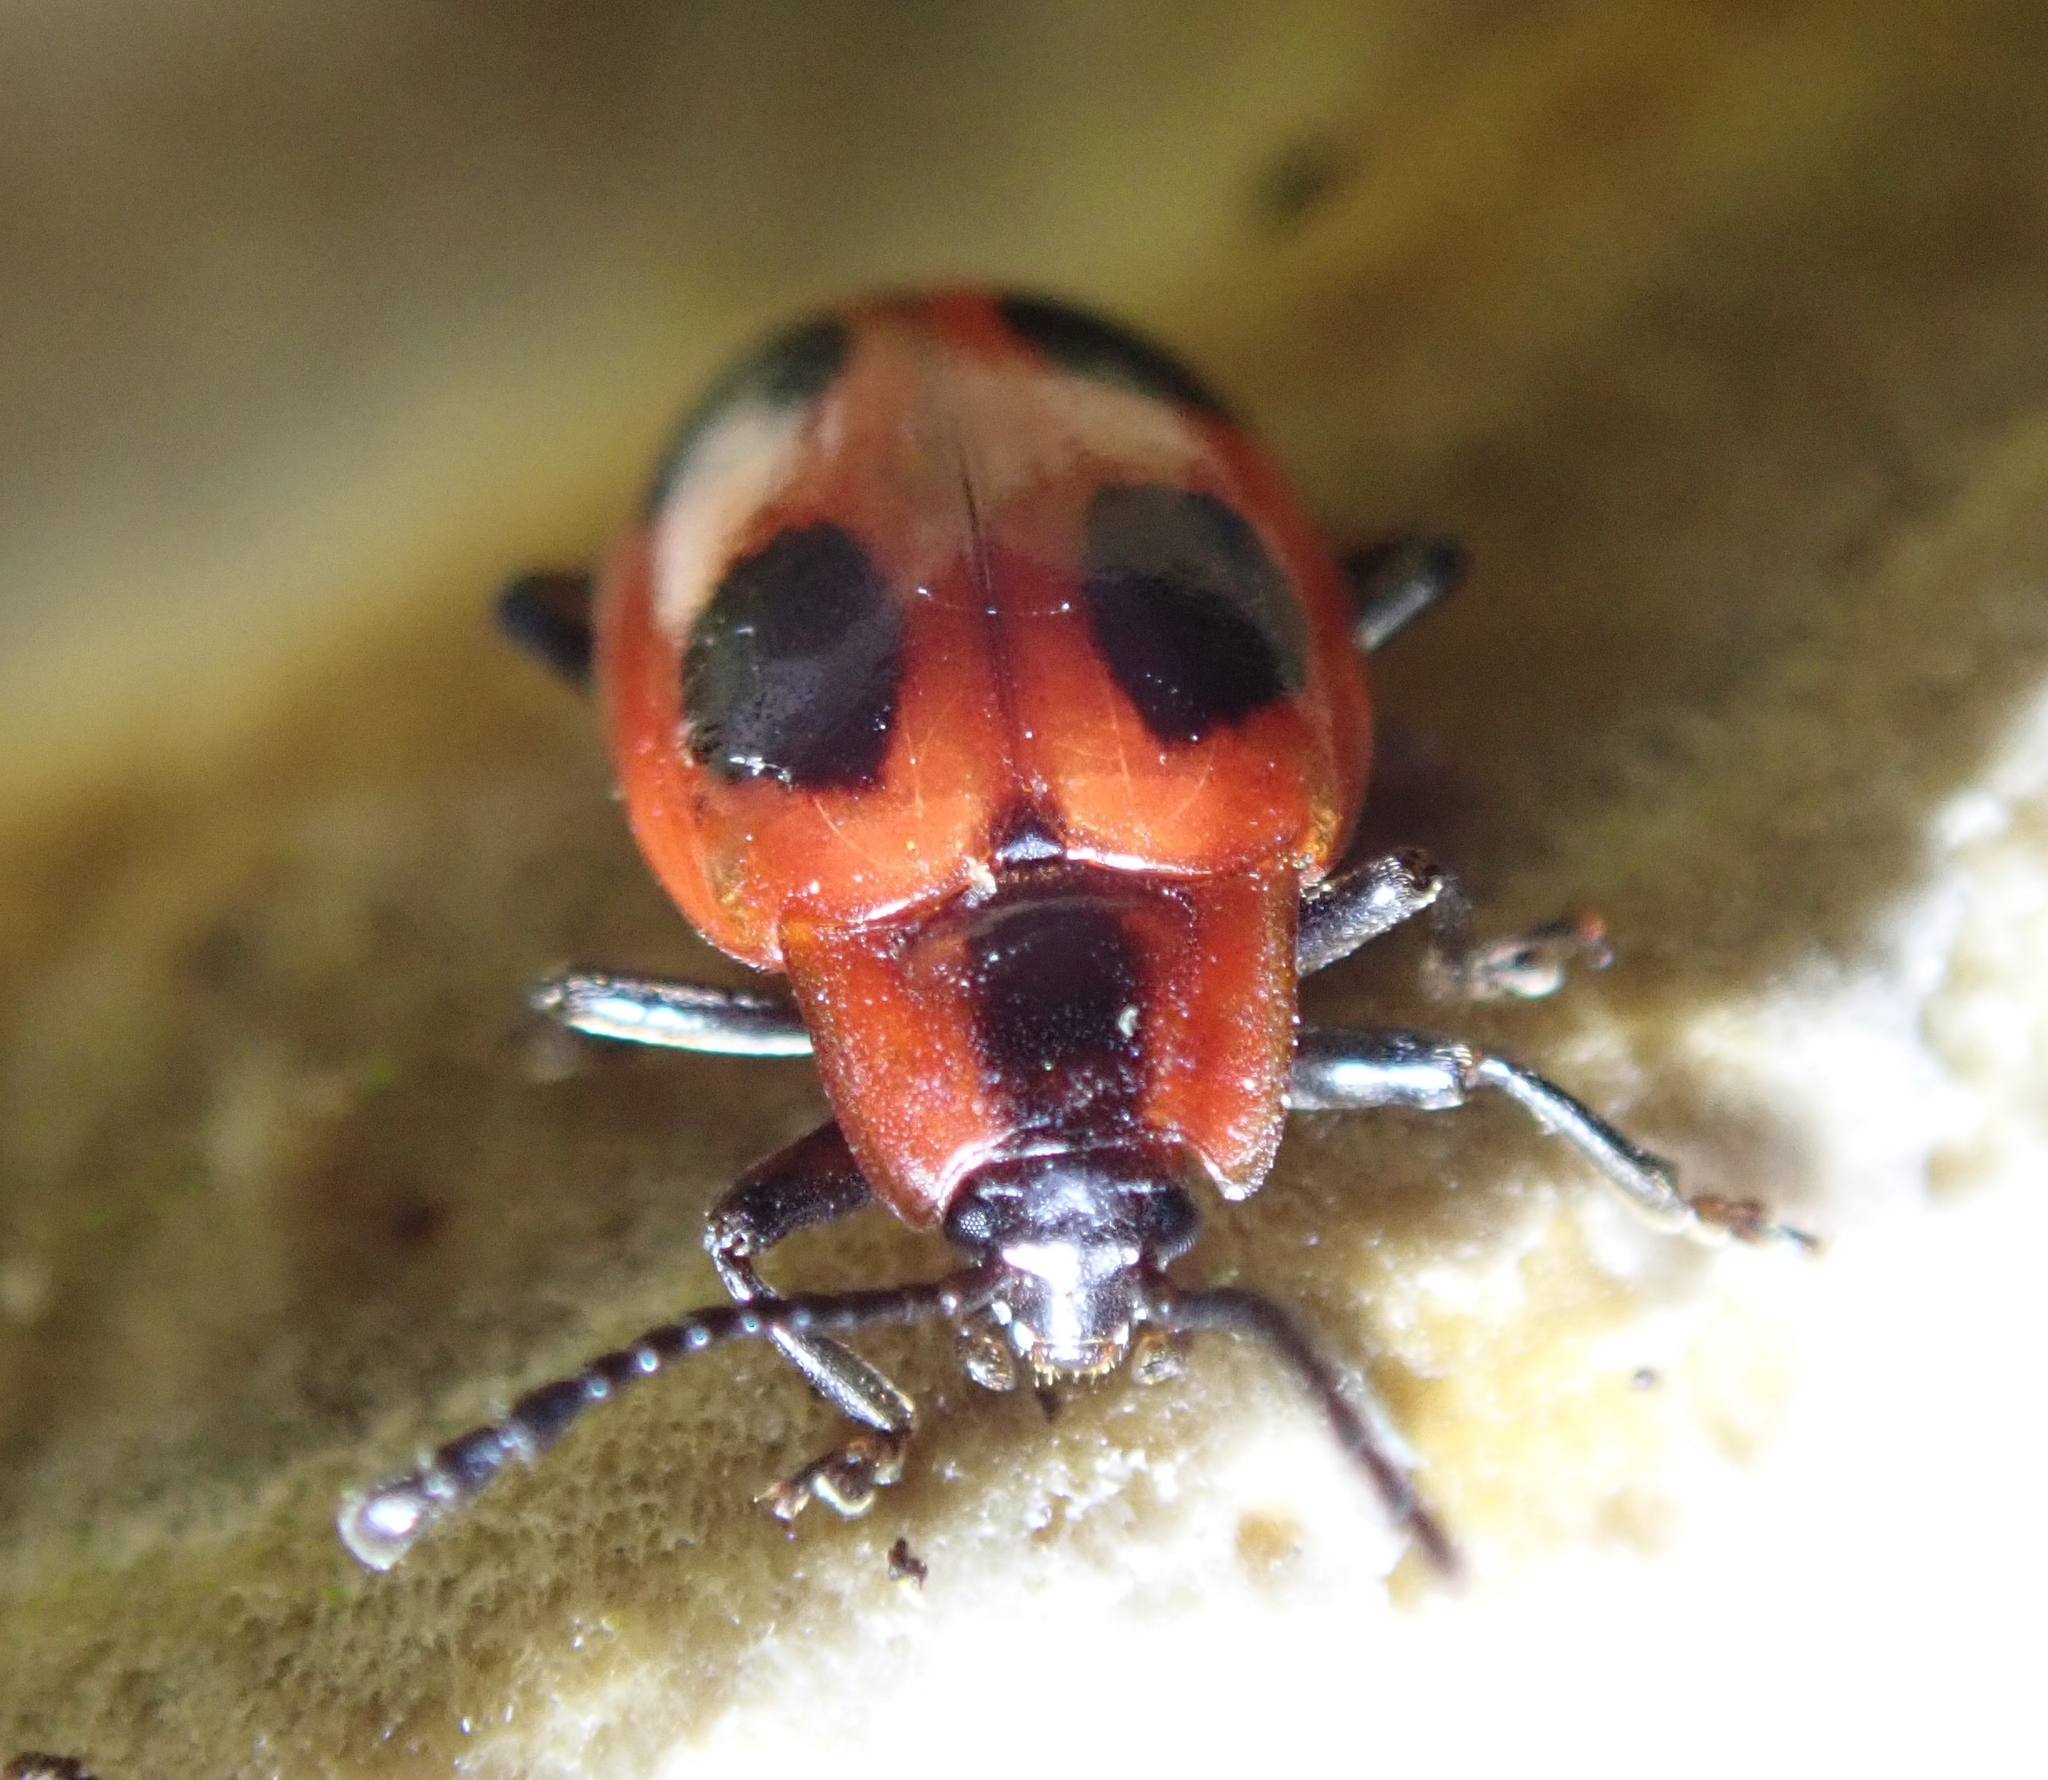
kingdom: Animalia
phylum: Arthropoda
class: Insecta
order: Coleoptera
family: Endomychidae
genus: Endomychus
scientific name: Endomychus coccineus
